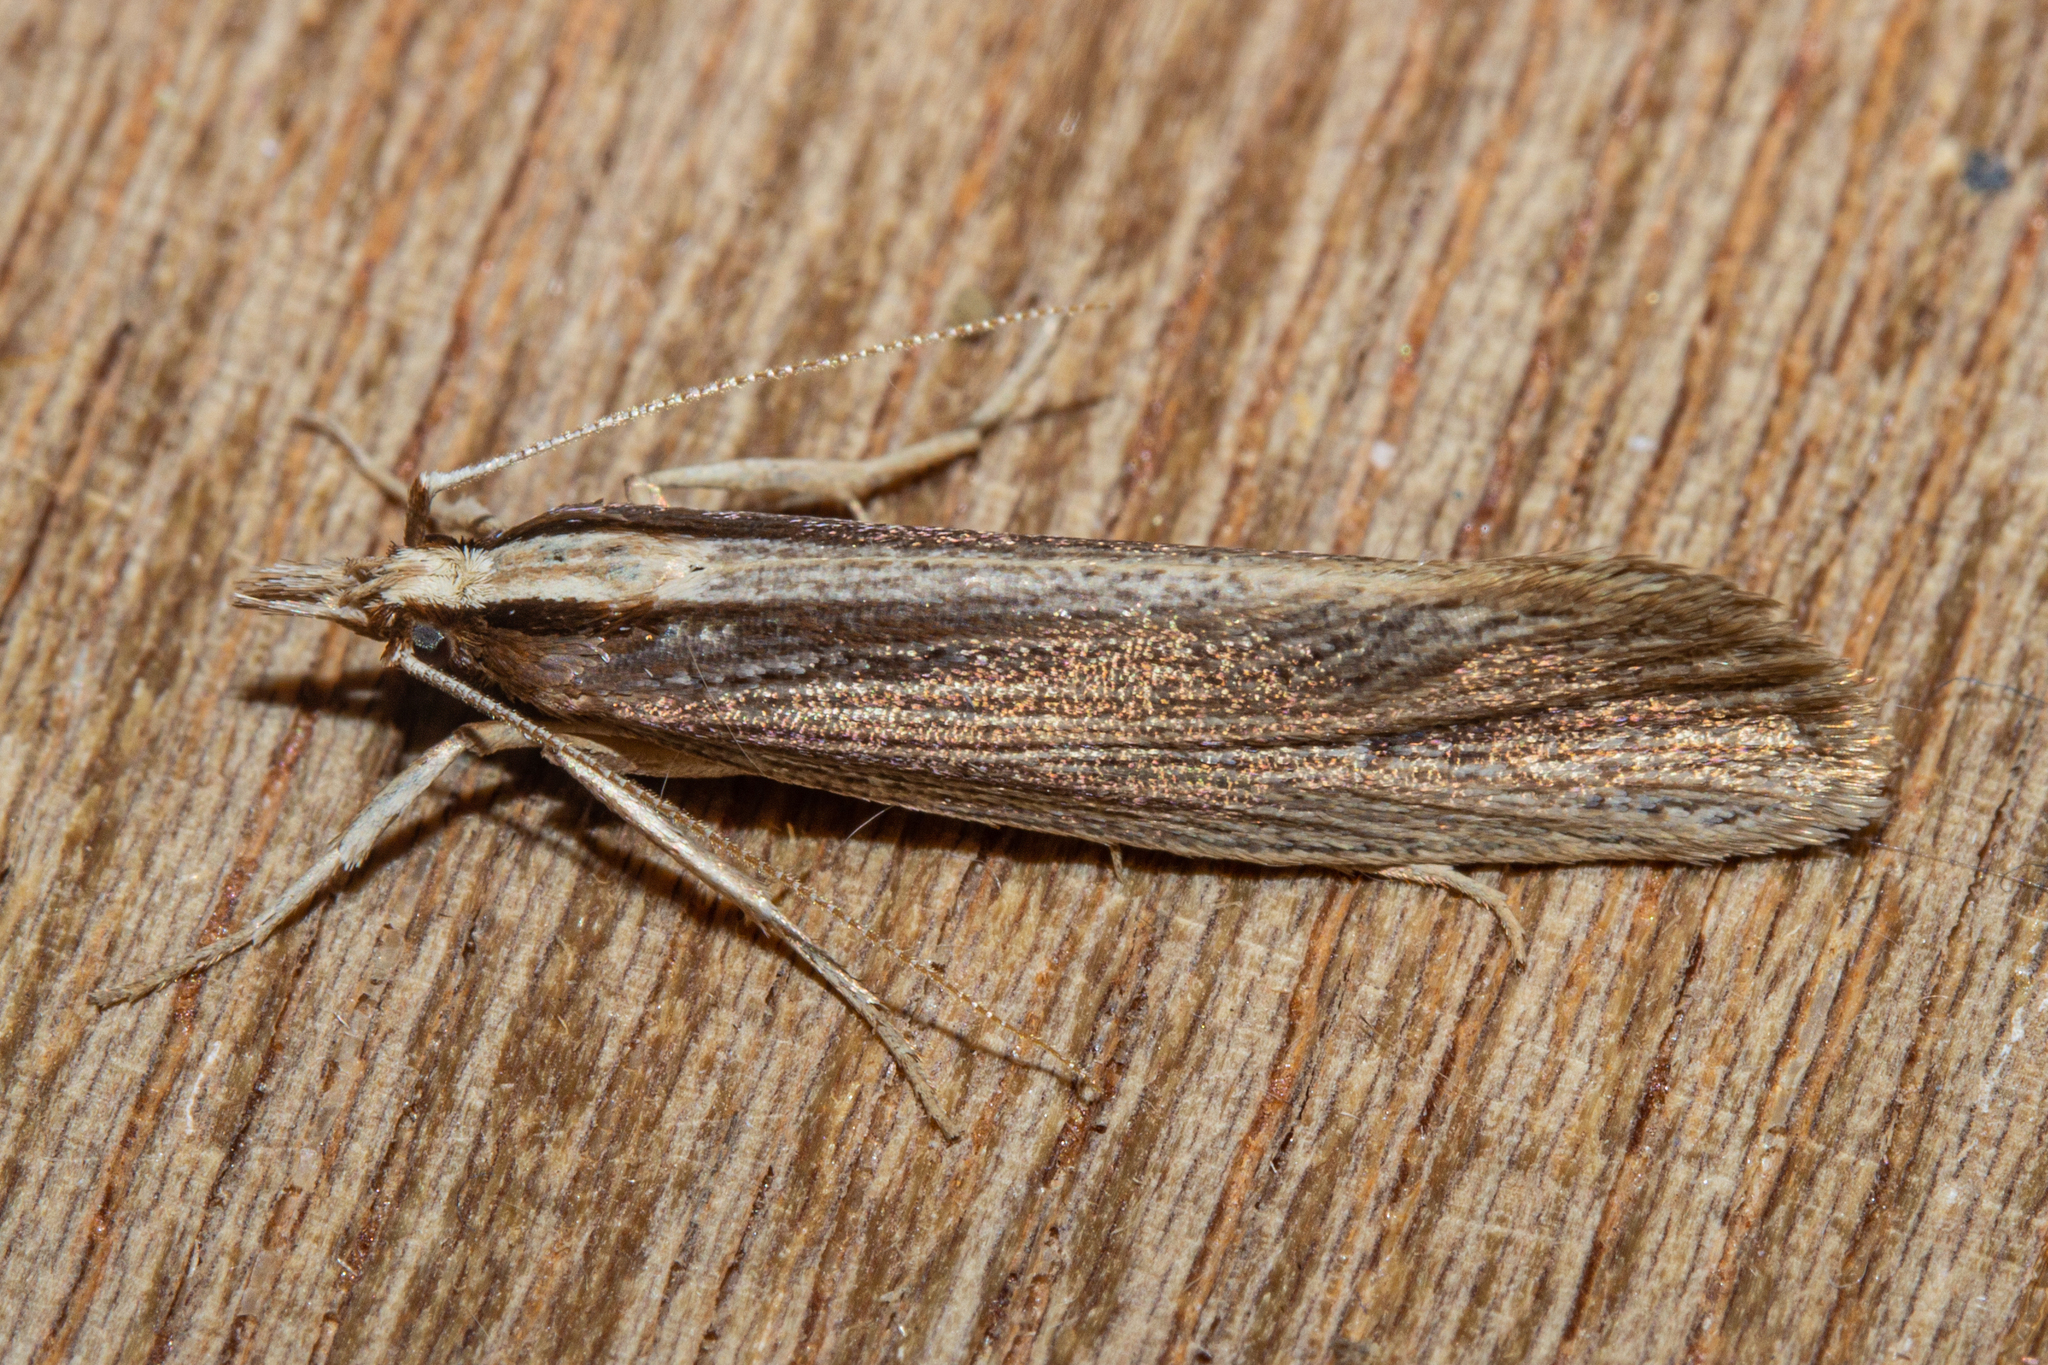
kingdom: Animalia
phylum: Arthropoda
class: Insecta
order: Lepidoptera
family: Plutellidae
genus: Proditrix
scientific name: Proditrix megalynta
